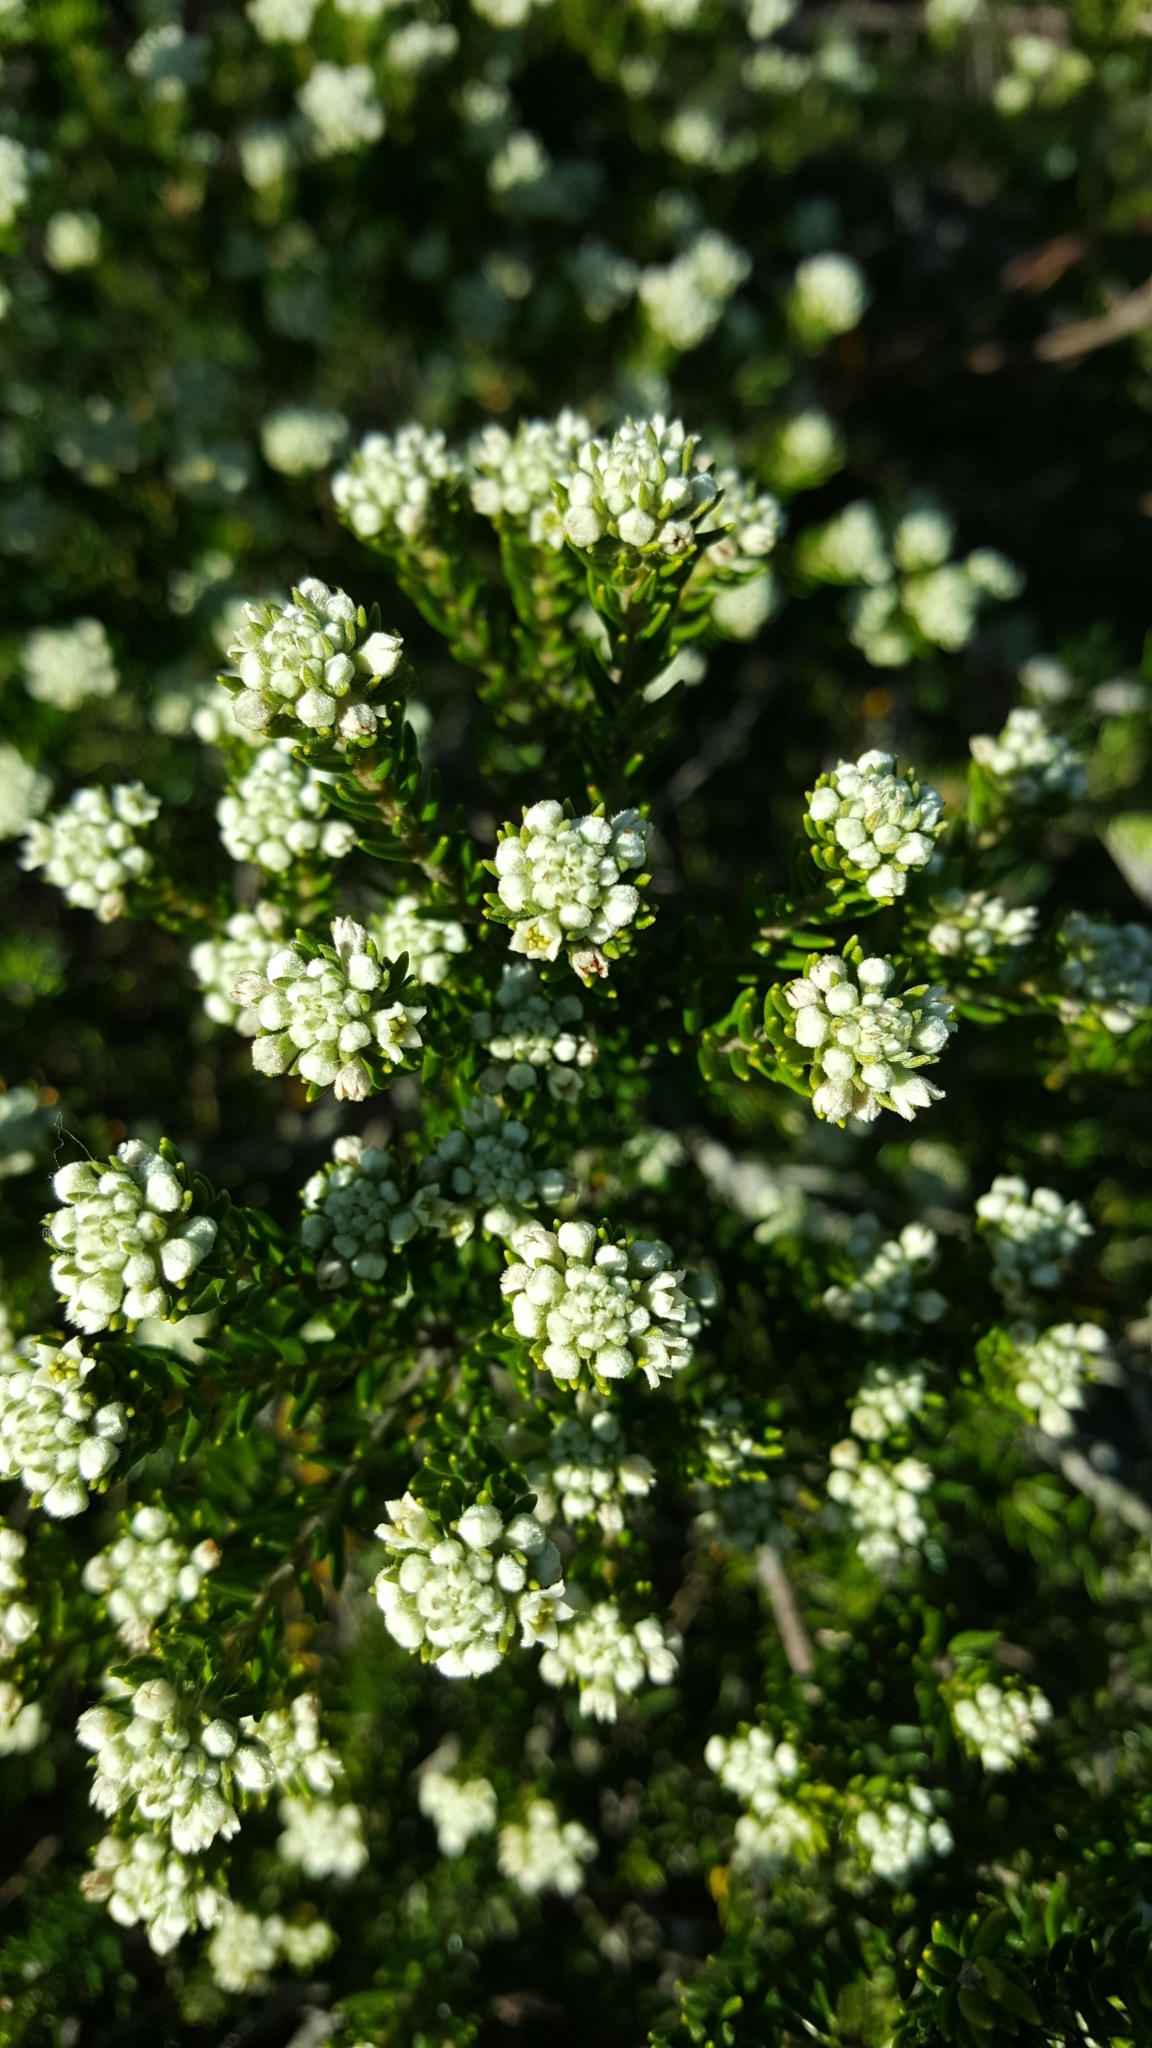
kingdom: Plantae
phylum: Tracheophyta
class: Magnoliopsida
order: Rosales
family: Rhamnaceae
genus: Phylica
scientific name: Phylica axillaris
